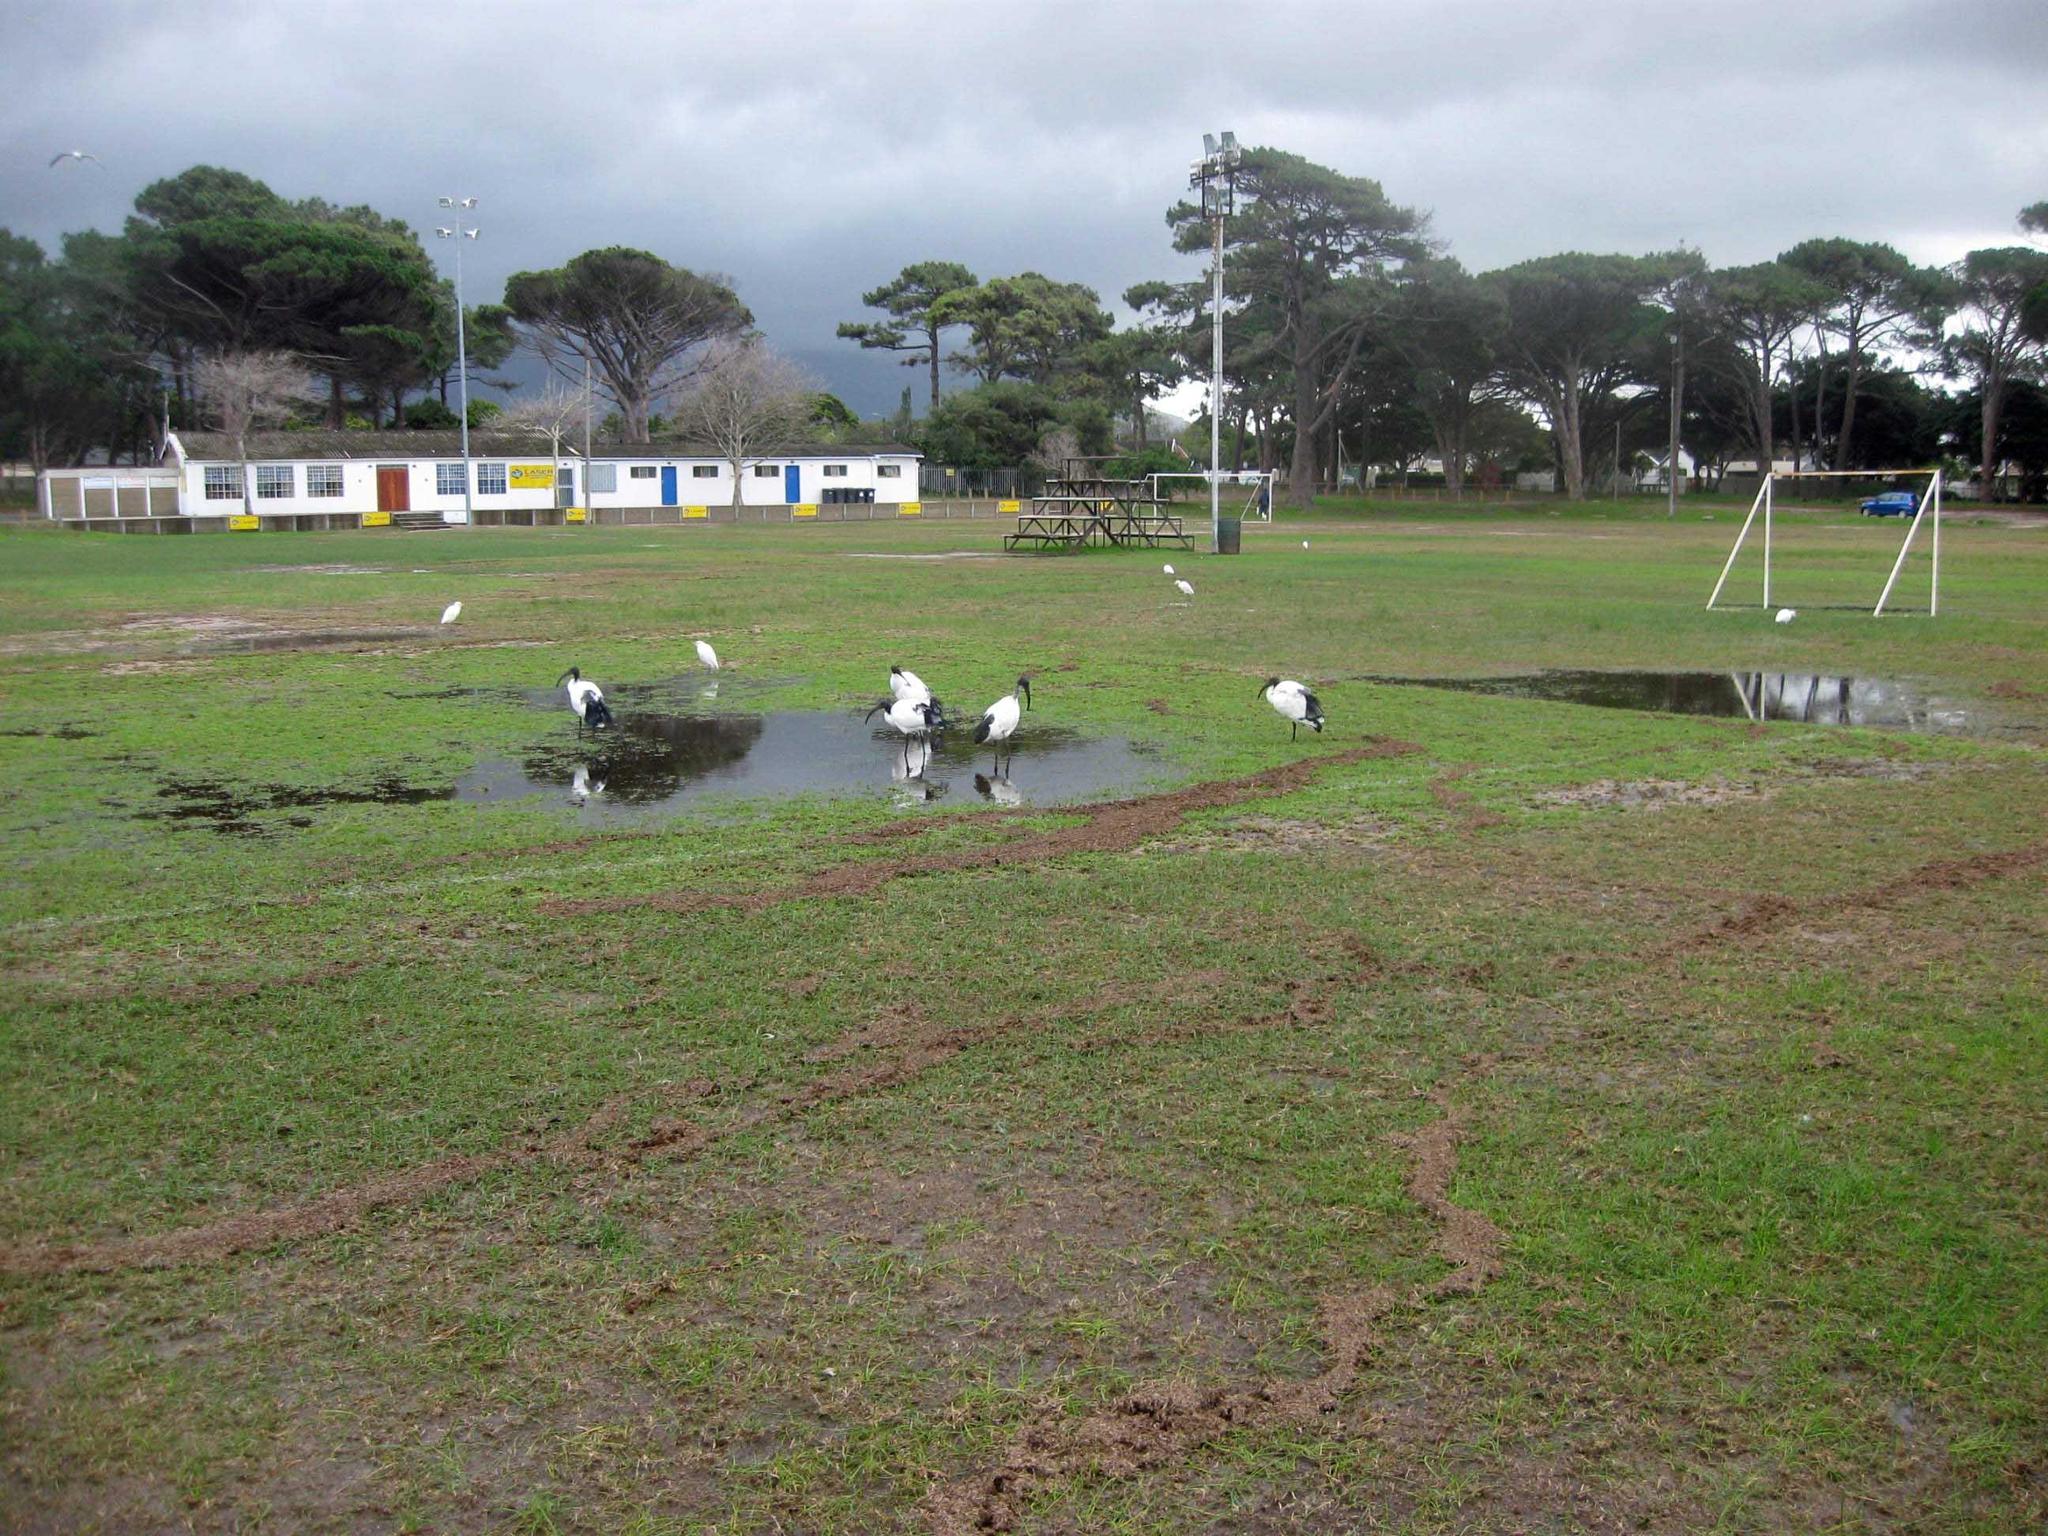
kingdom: Animalia
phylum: Chordata
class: Aves
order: Pelecaniformes
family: Threskiornithidae
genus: Threskiornis
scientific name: Threskiornis aethiopicus
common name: Sacred ibis
